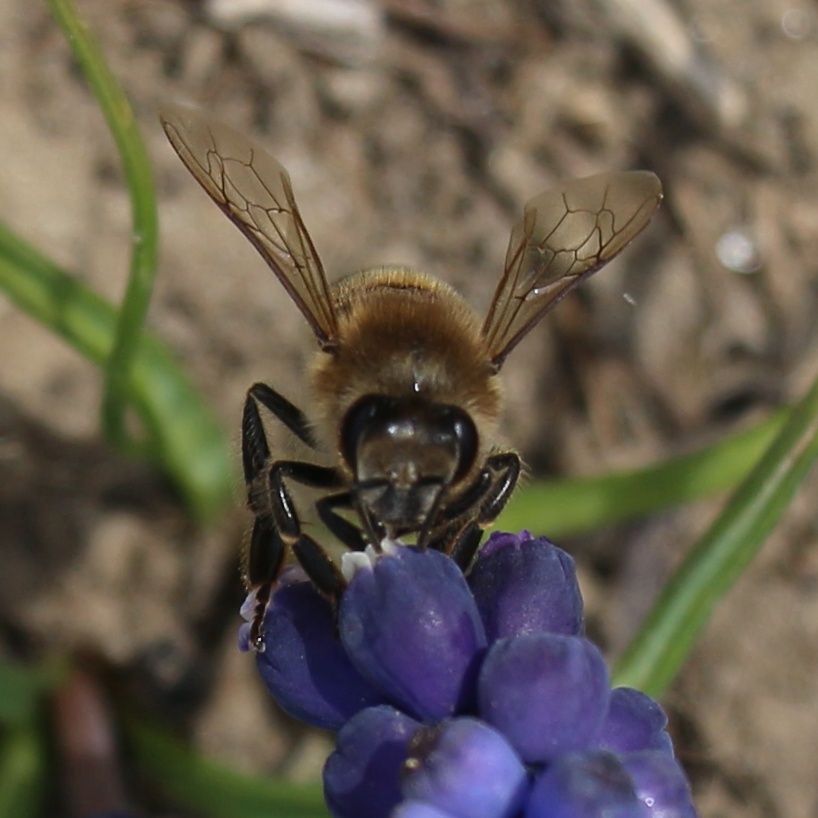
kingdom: Animalia
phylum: Arthropoda
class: Insecta
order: Hymenoptera
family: Apidae
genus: Apis
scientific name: Apis mellifera
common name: Honey bee
